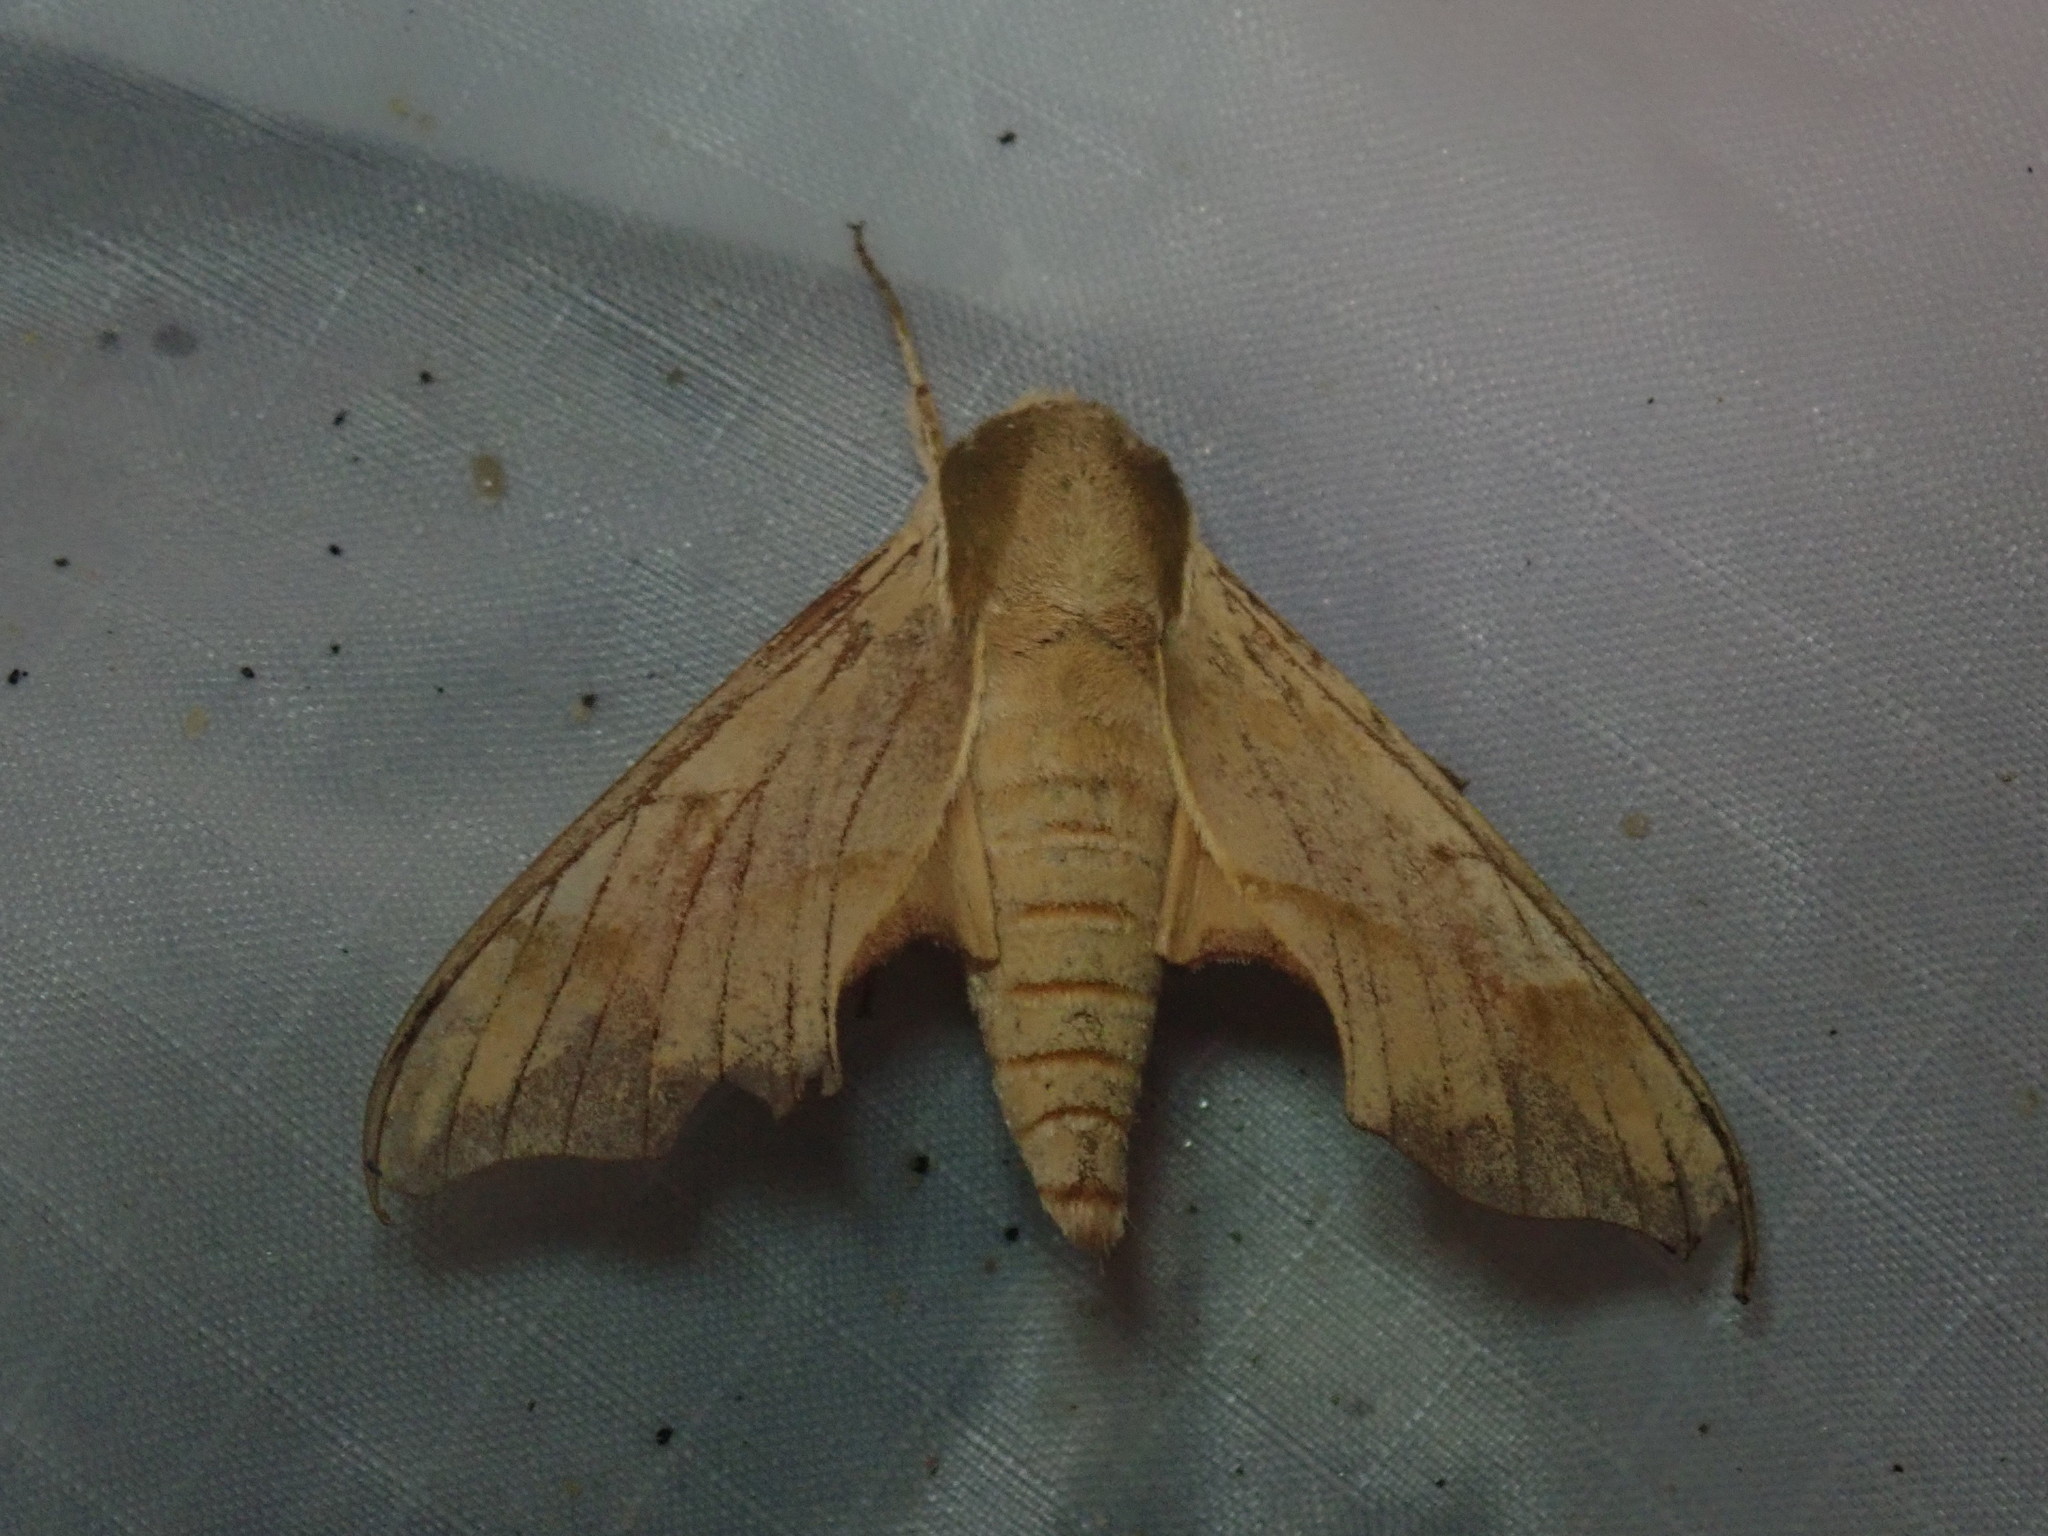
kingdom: Animalia
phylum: Arthropoda
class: Insecta
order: Lepidoptera
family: Sphingidae
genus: Darapsa
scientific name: Darapsa myron
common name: Hog sphinx
